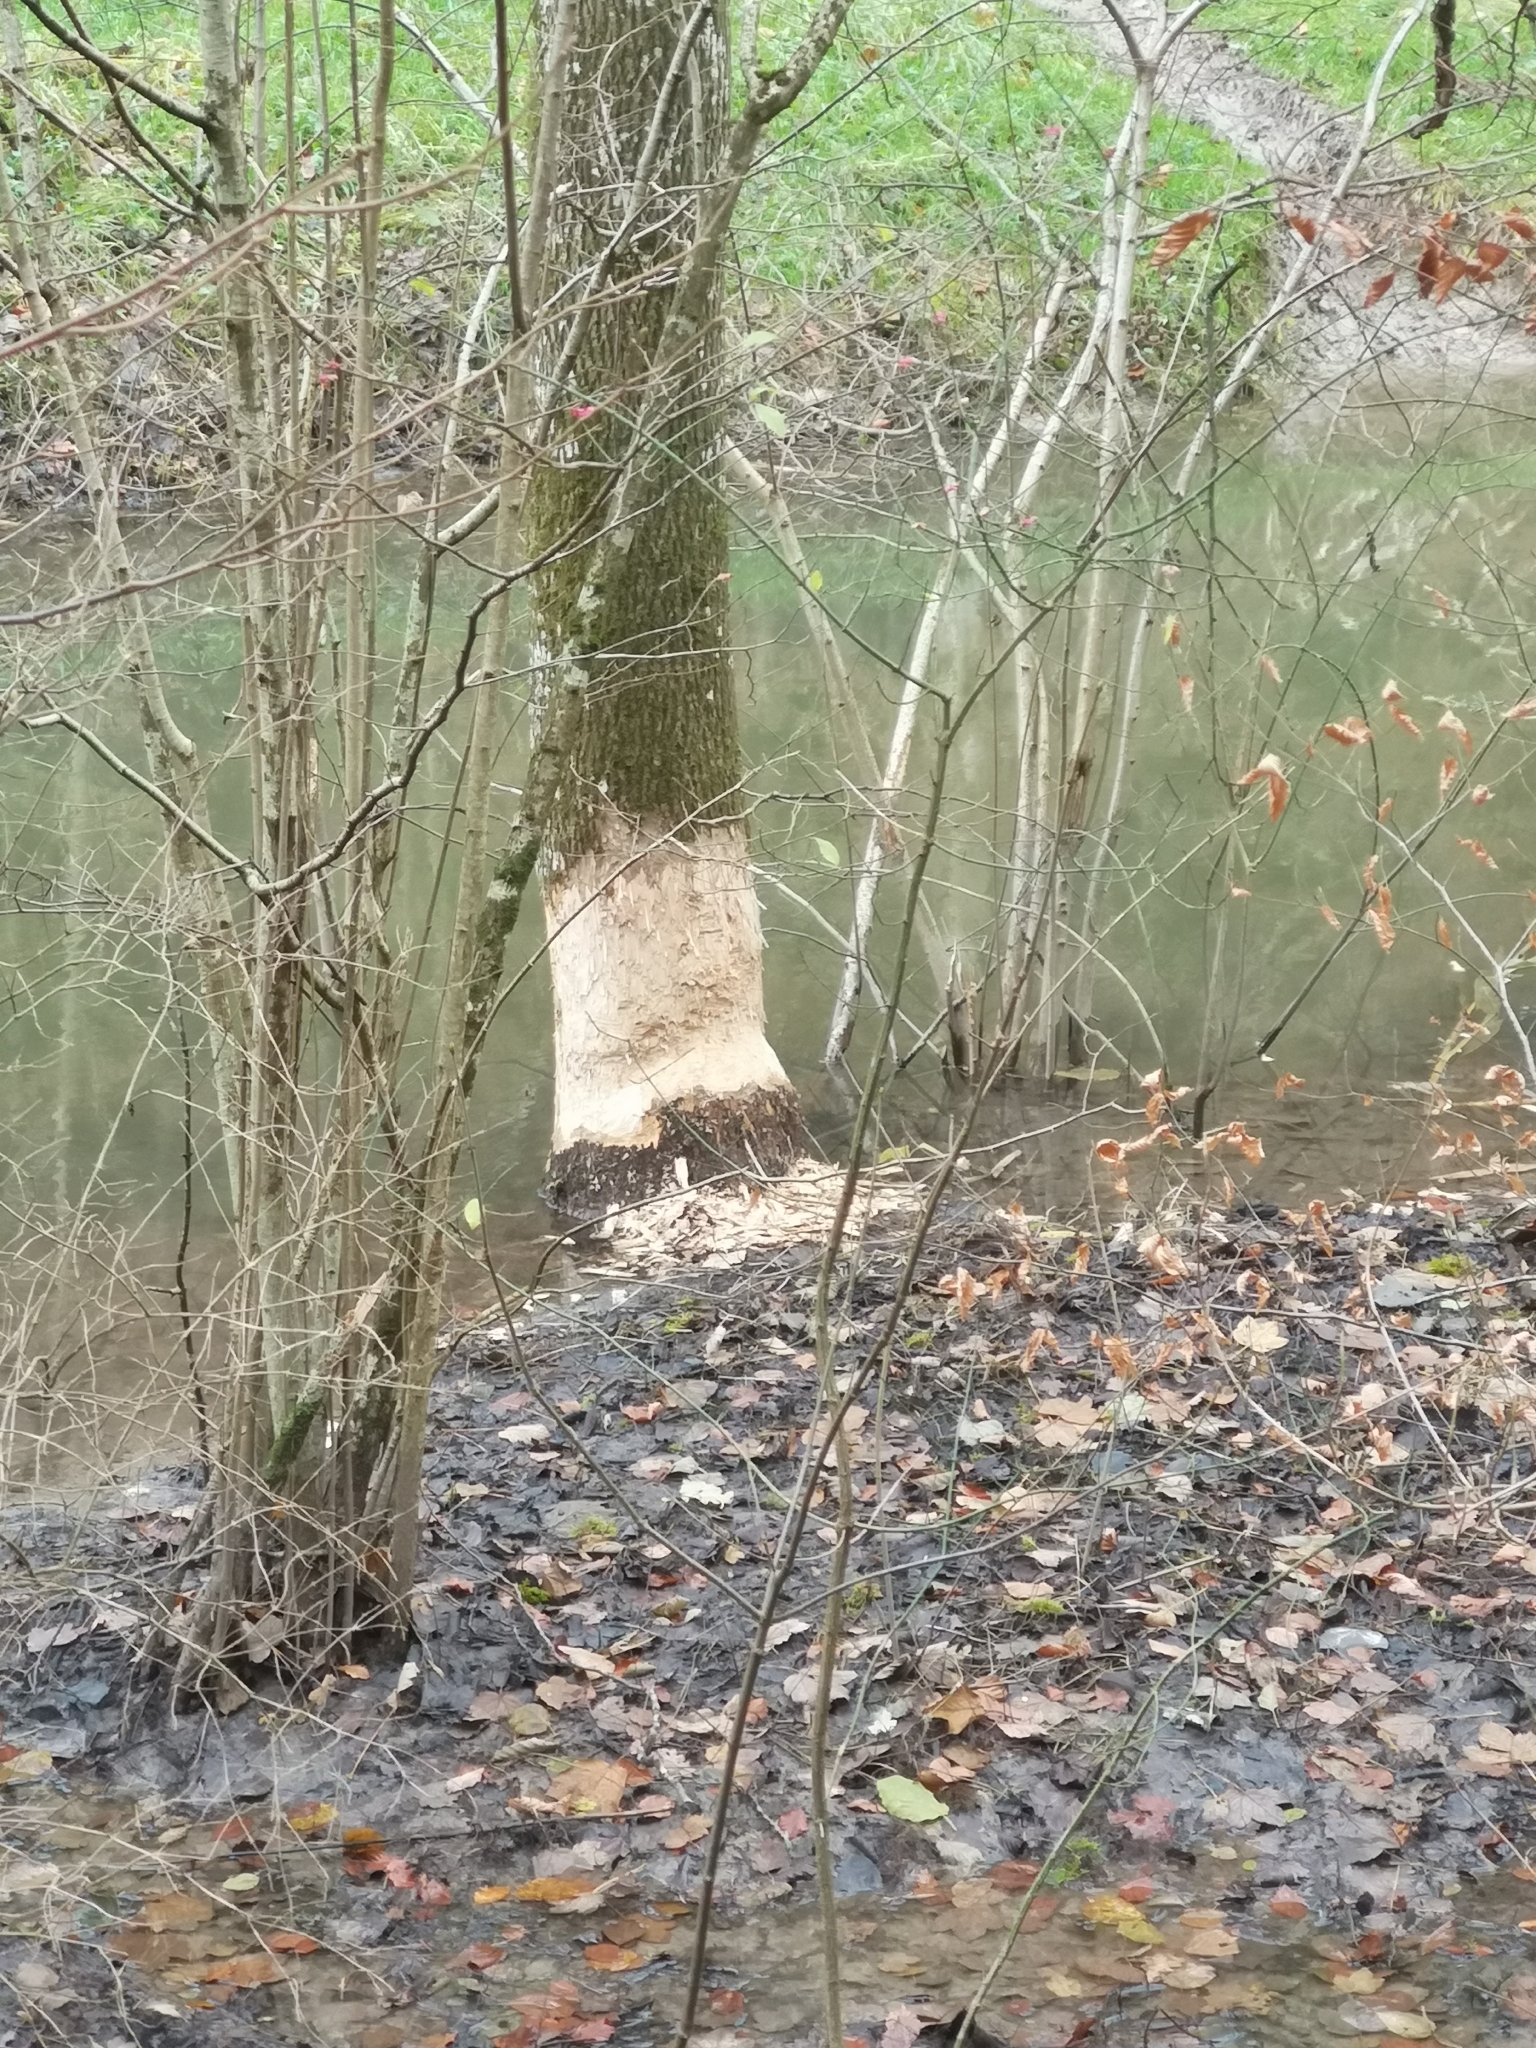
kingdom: Animalia
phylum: Chordata
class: Mammalia
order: Rodentia
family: Castoridae
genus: Castor
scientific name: Castor fiber
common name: Eurasian beaver
